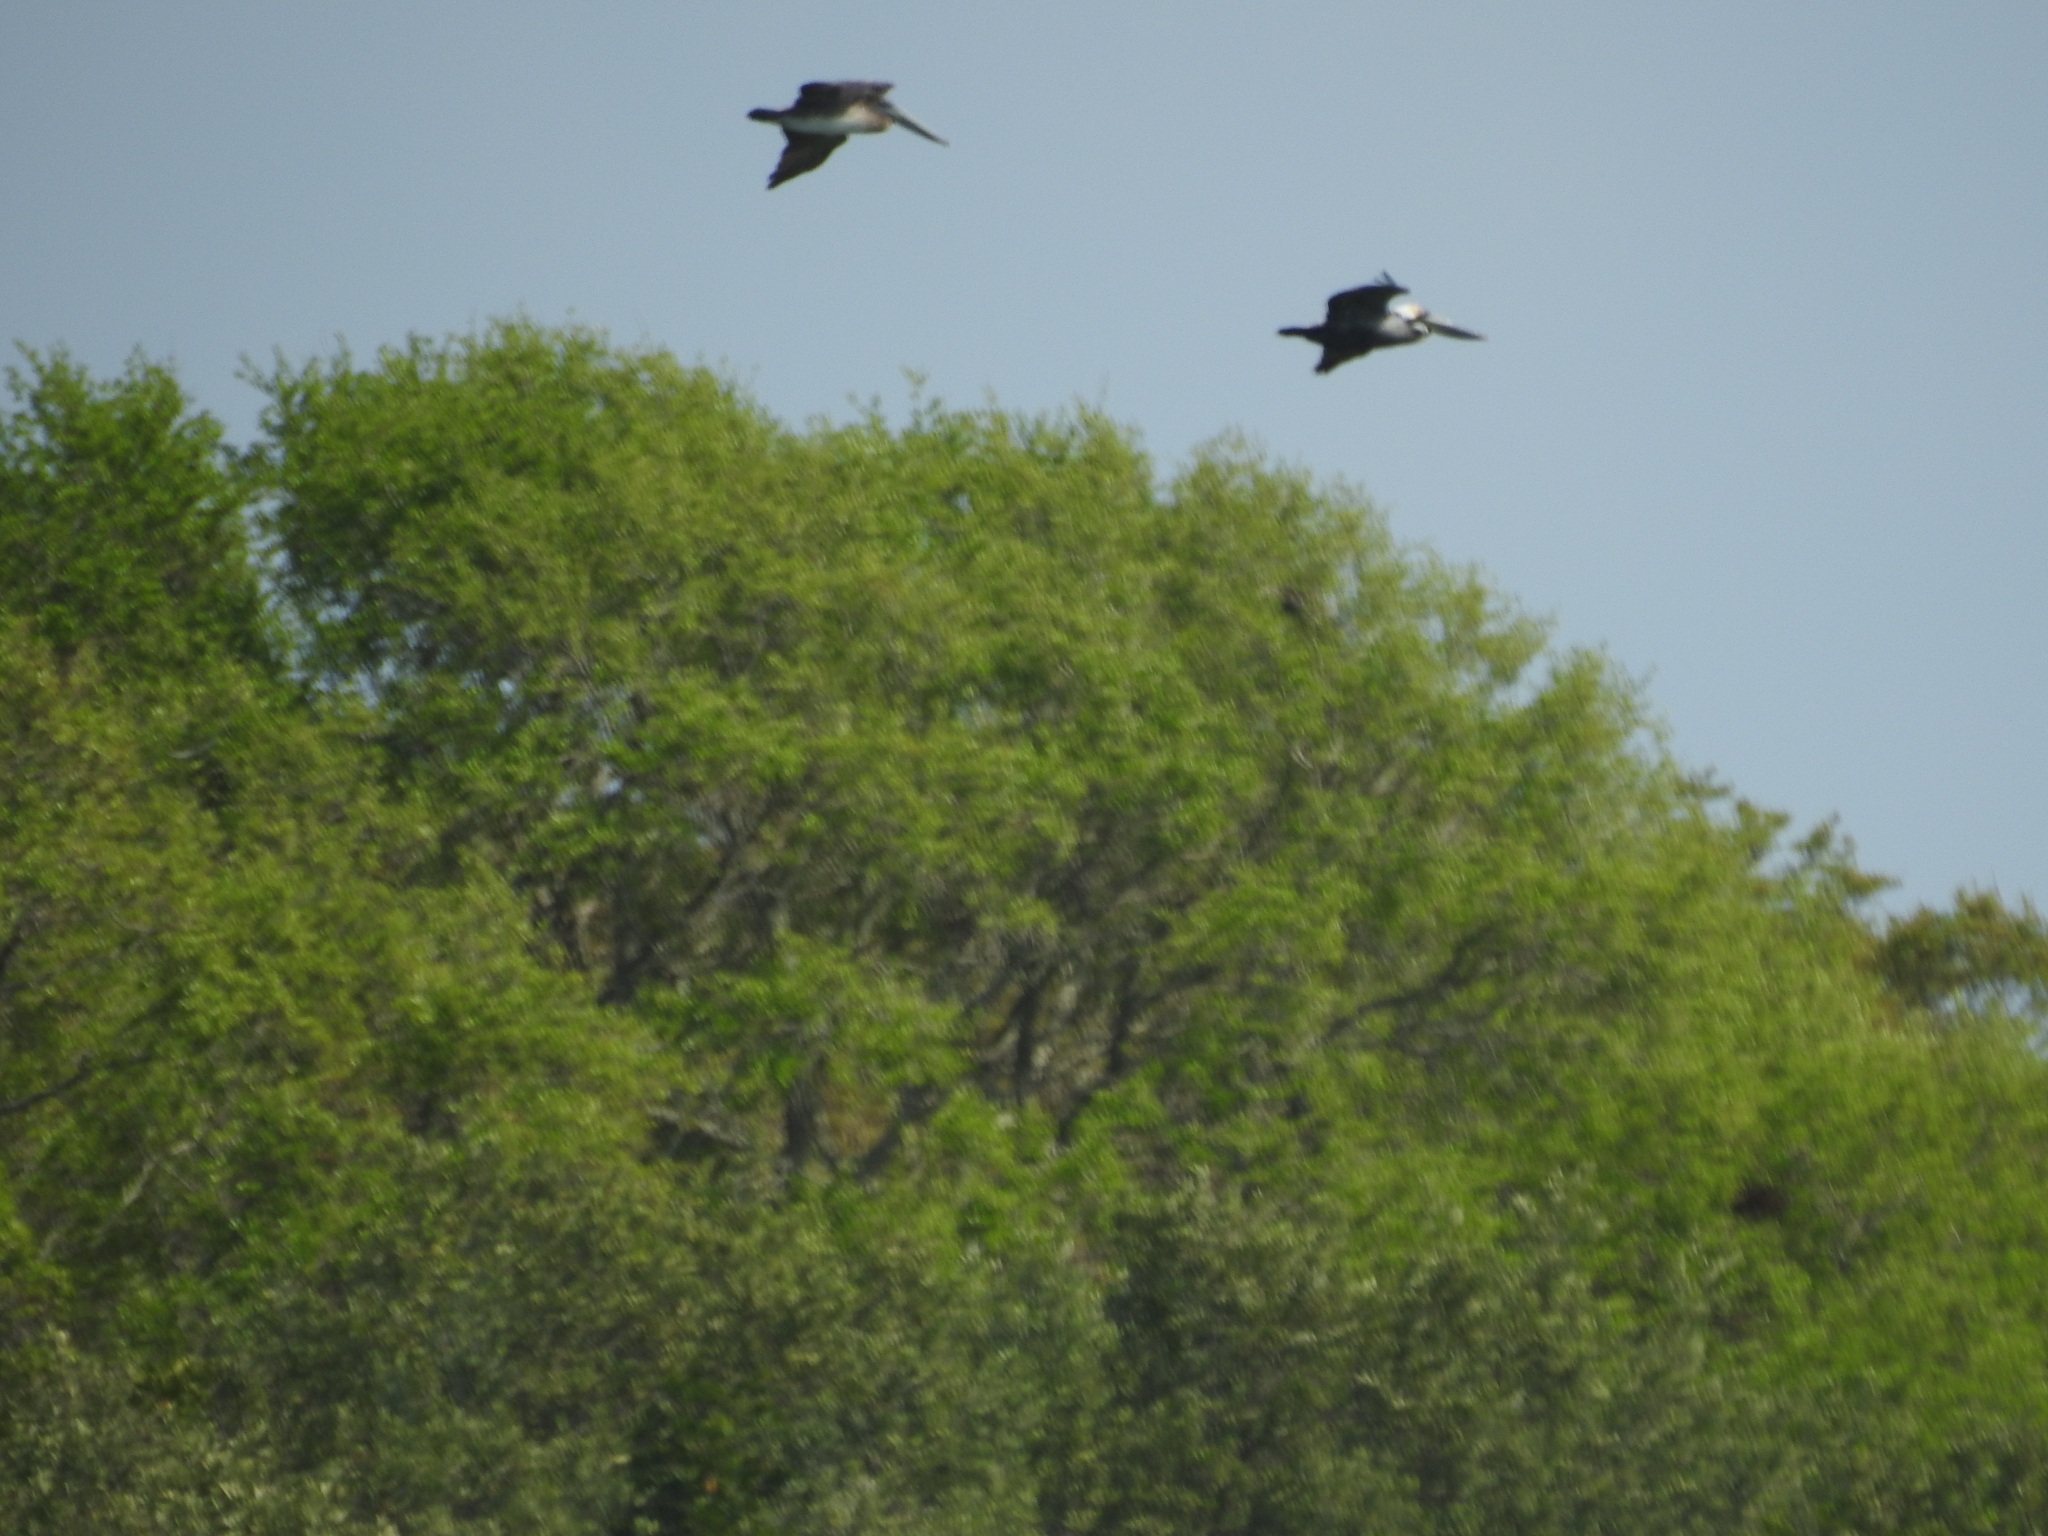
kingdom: Animalia
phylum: Chordata
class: Aves
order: Pelecaniformes
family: Pelecanidae
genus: Pelecanus
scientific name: Pelecanus occidentalis
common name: Brown pelican
